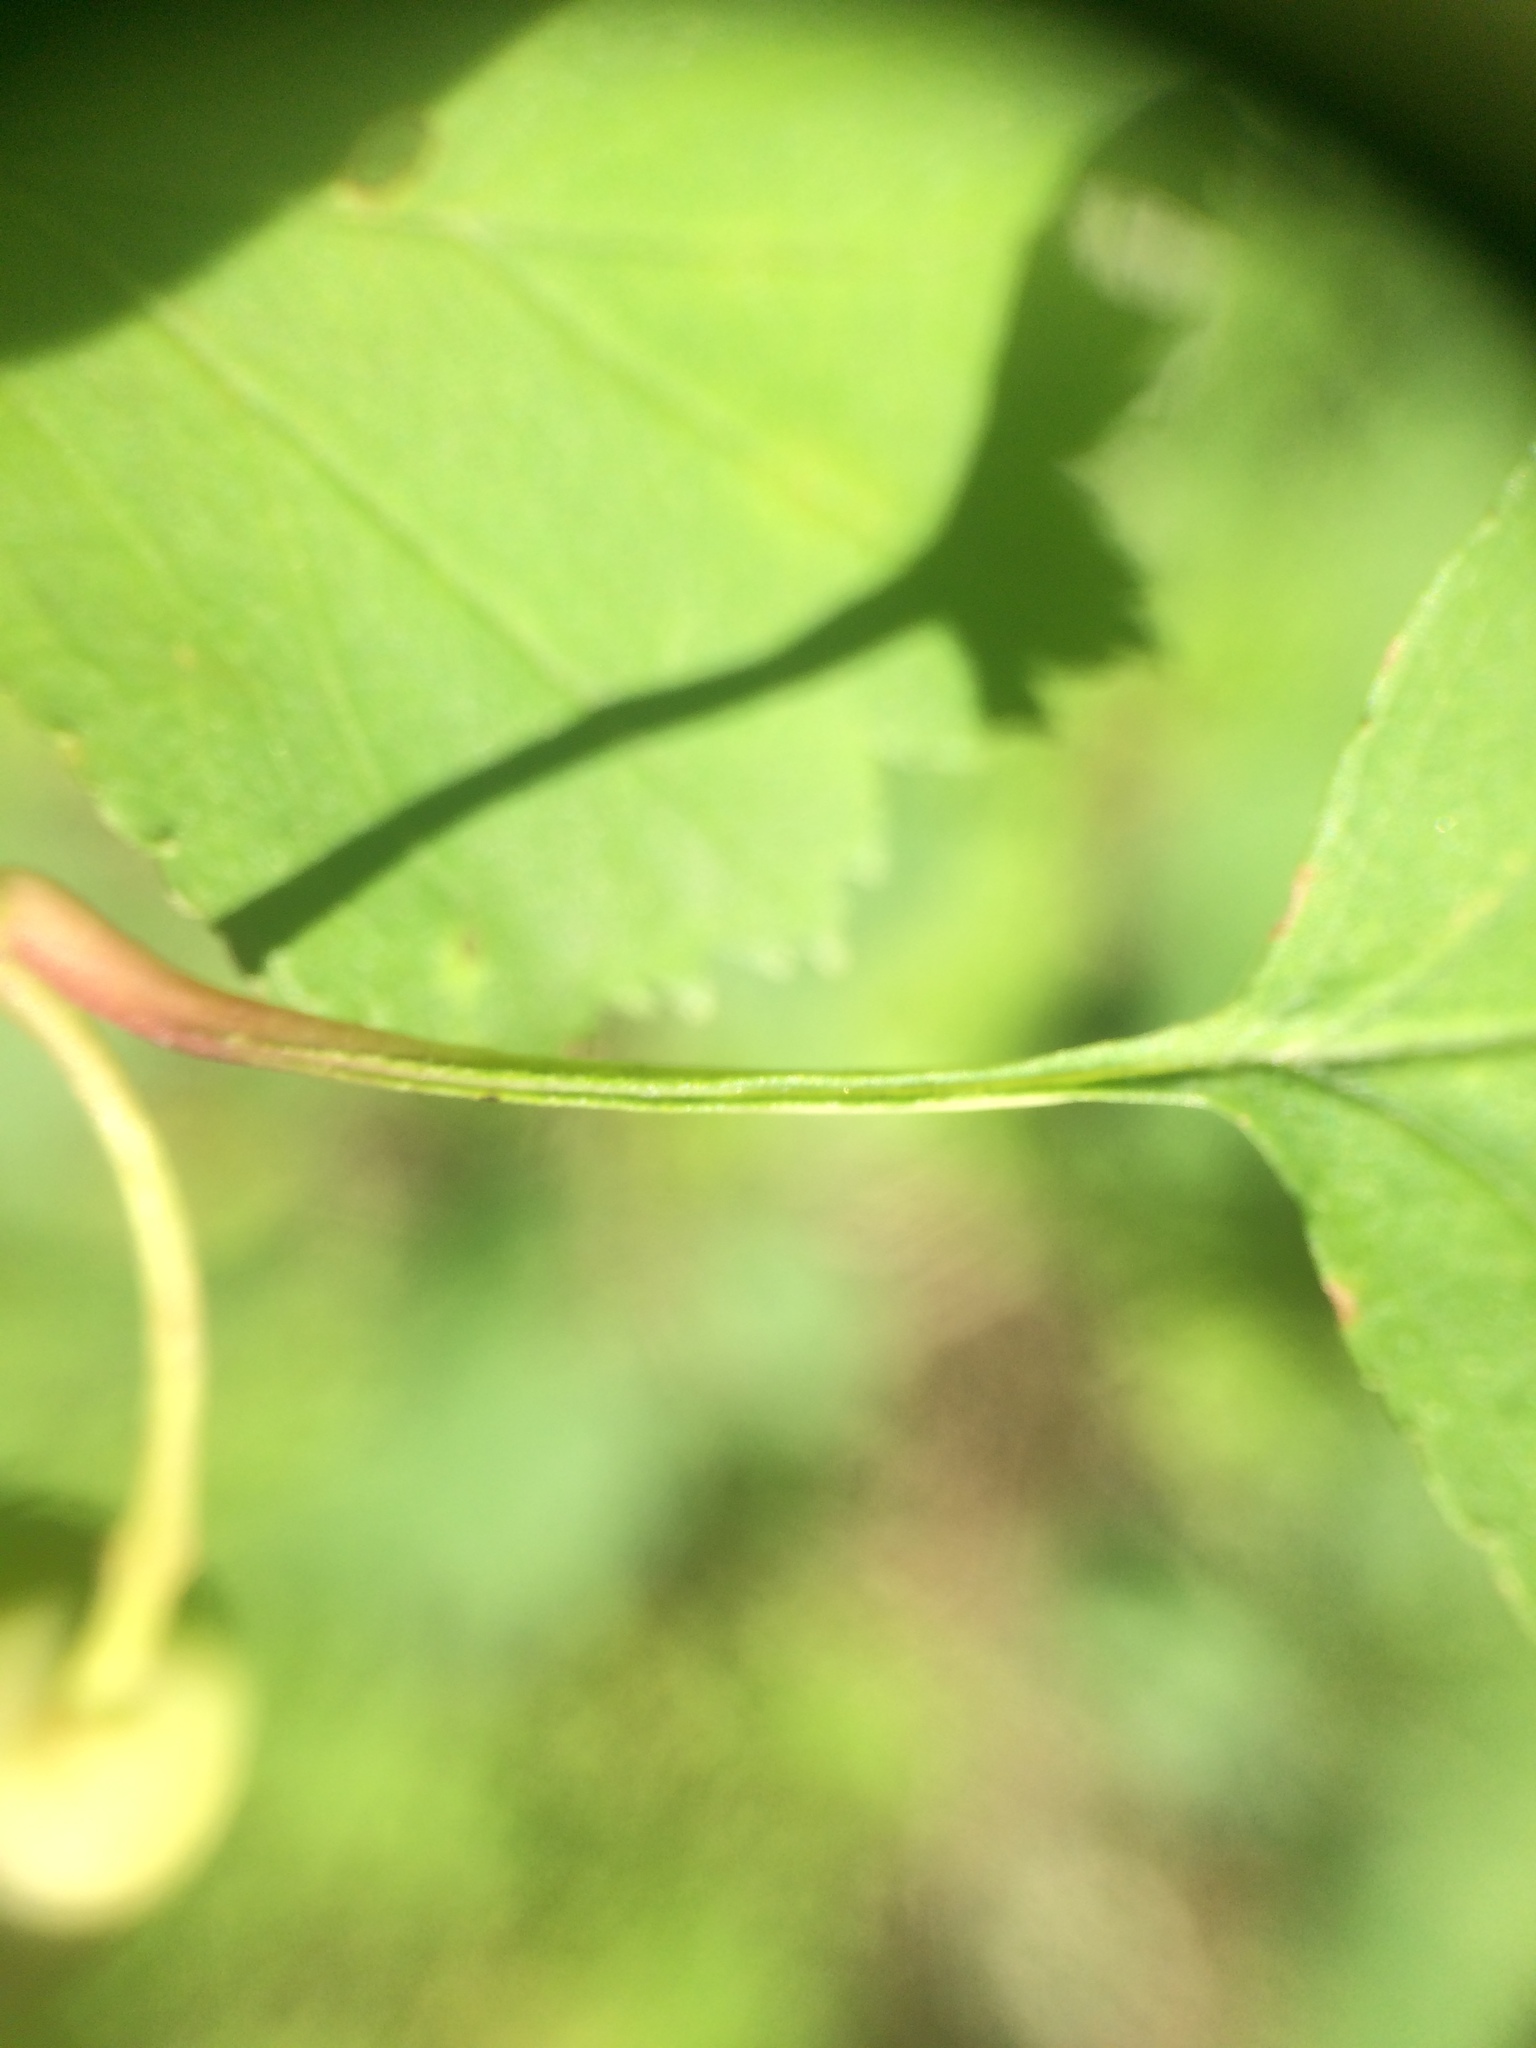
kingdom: Plantae
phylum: Tracheophyta
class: Magnoliopsida
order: Rosales
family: Rosaceae
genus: Crataegus
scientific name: Crataegus macrosperma
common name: Variable hawthorn
